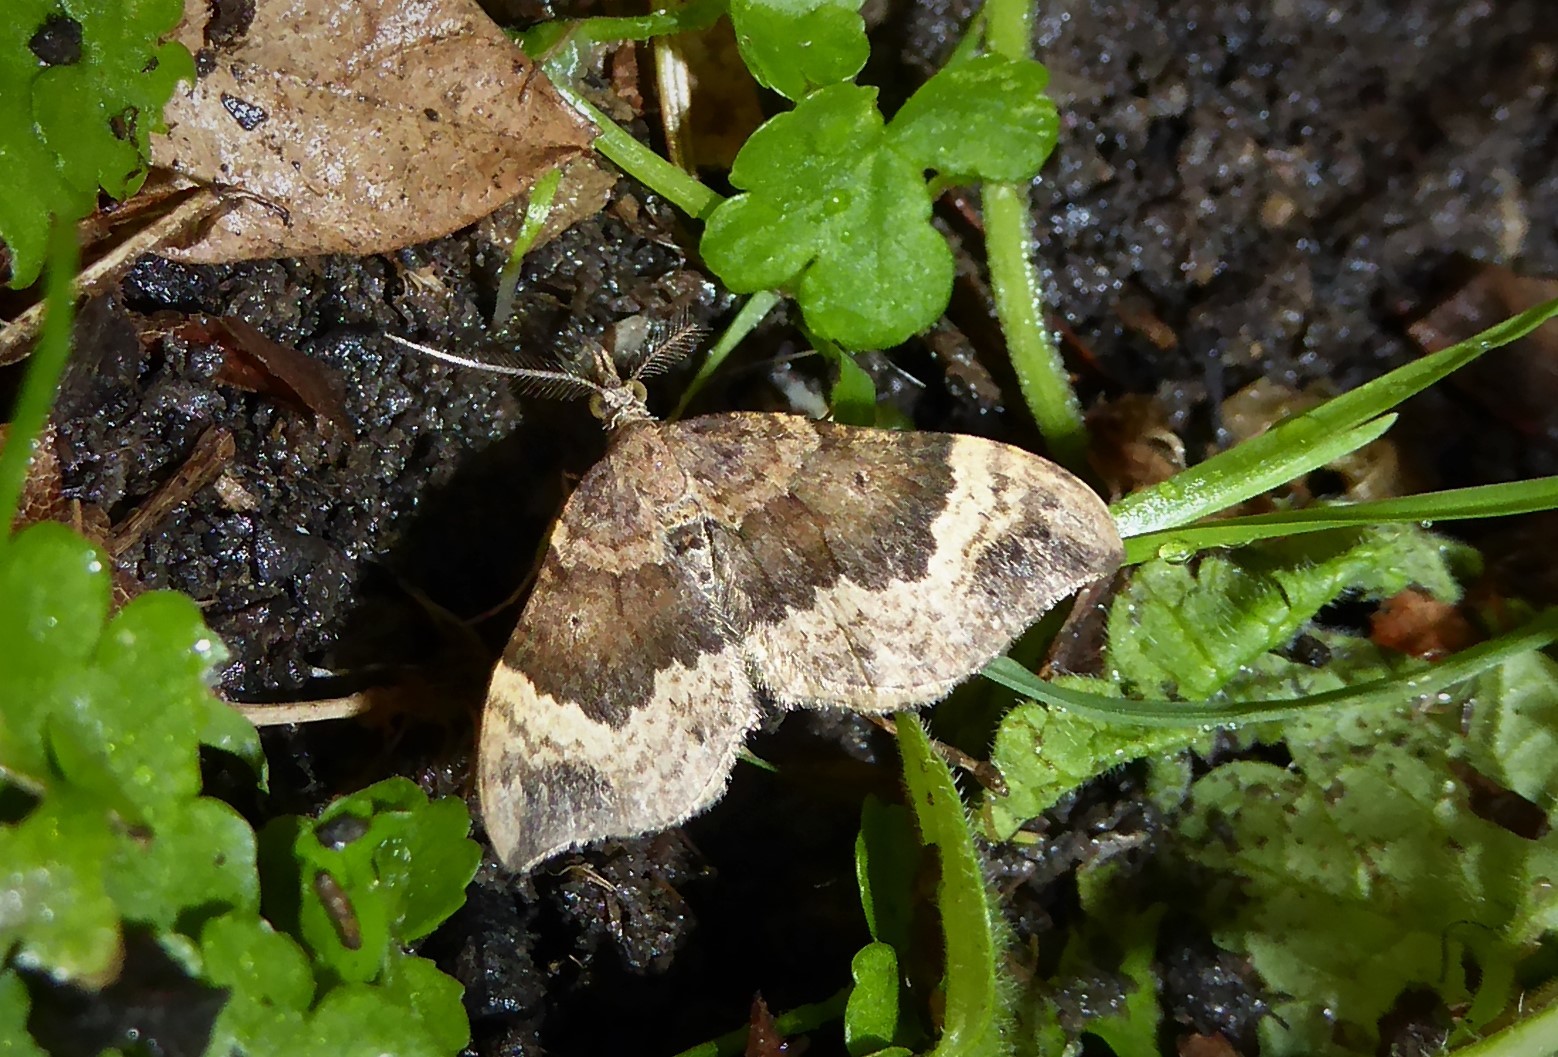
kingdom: Animalia
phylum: Arthropoda
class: Insecta
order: Lepidoptera
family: Geometridae
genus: Homodotis
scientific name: Homodotis megaspilata
